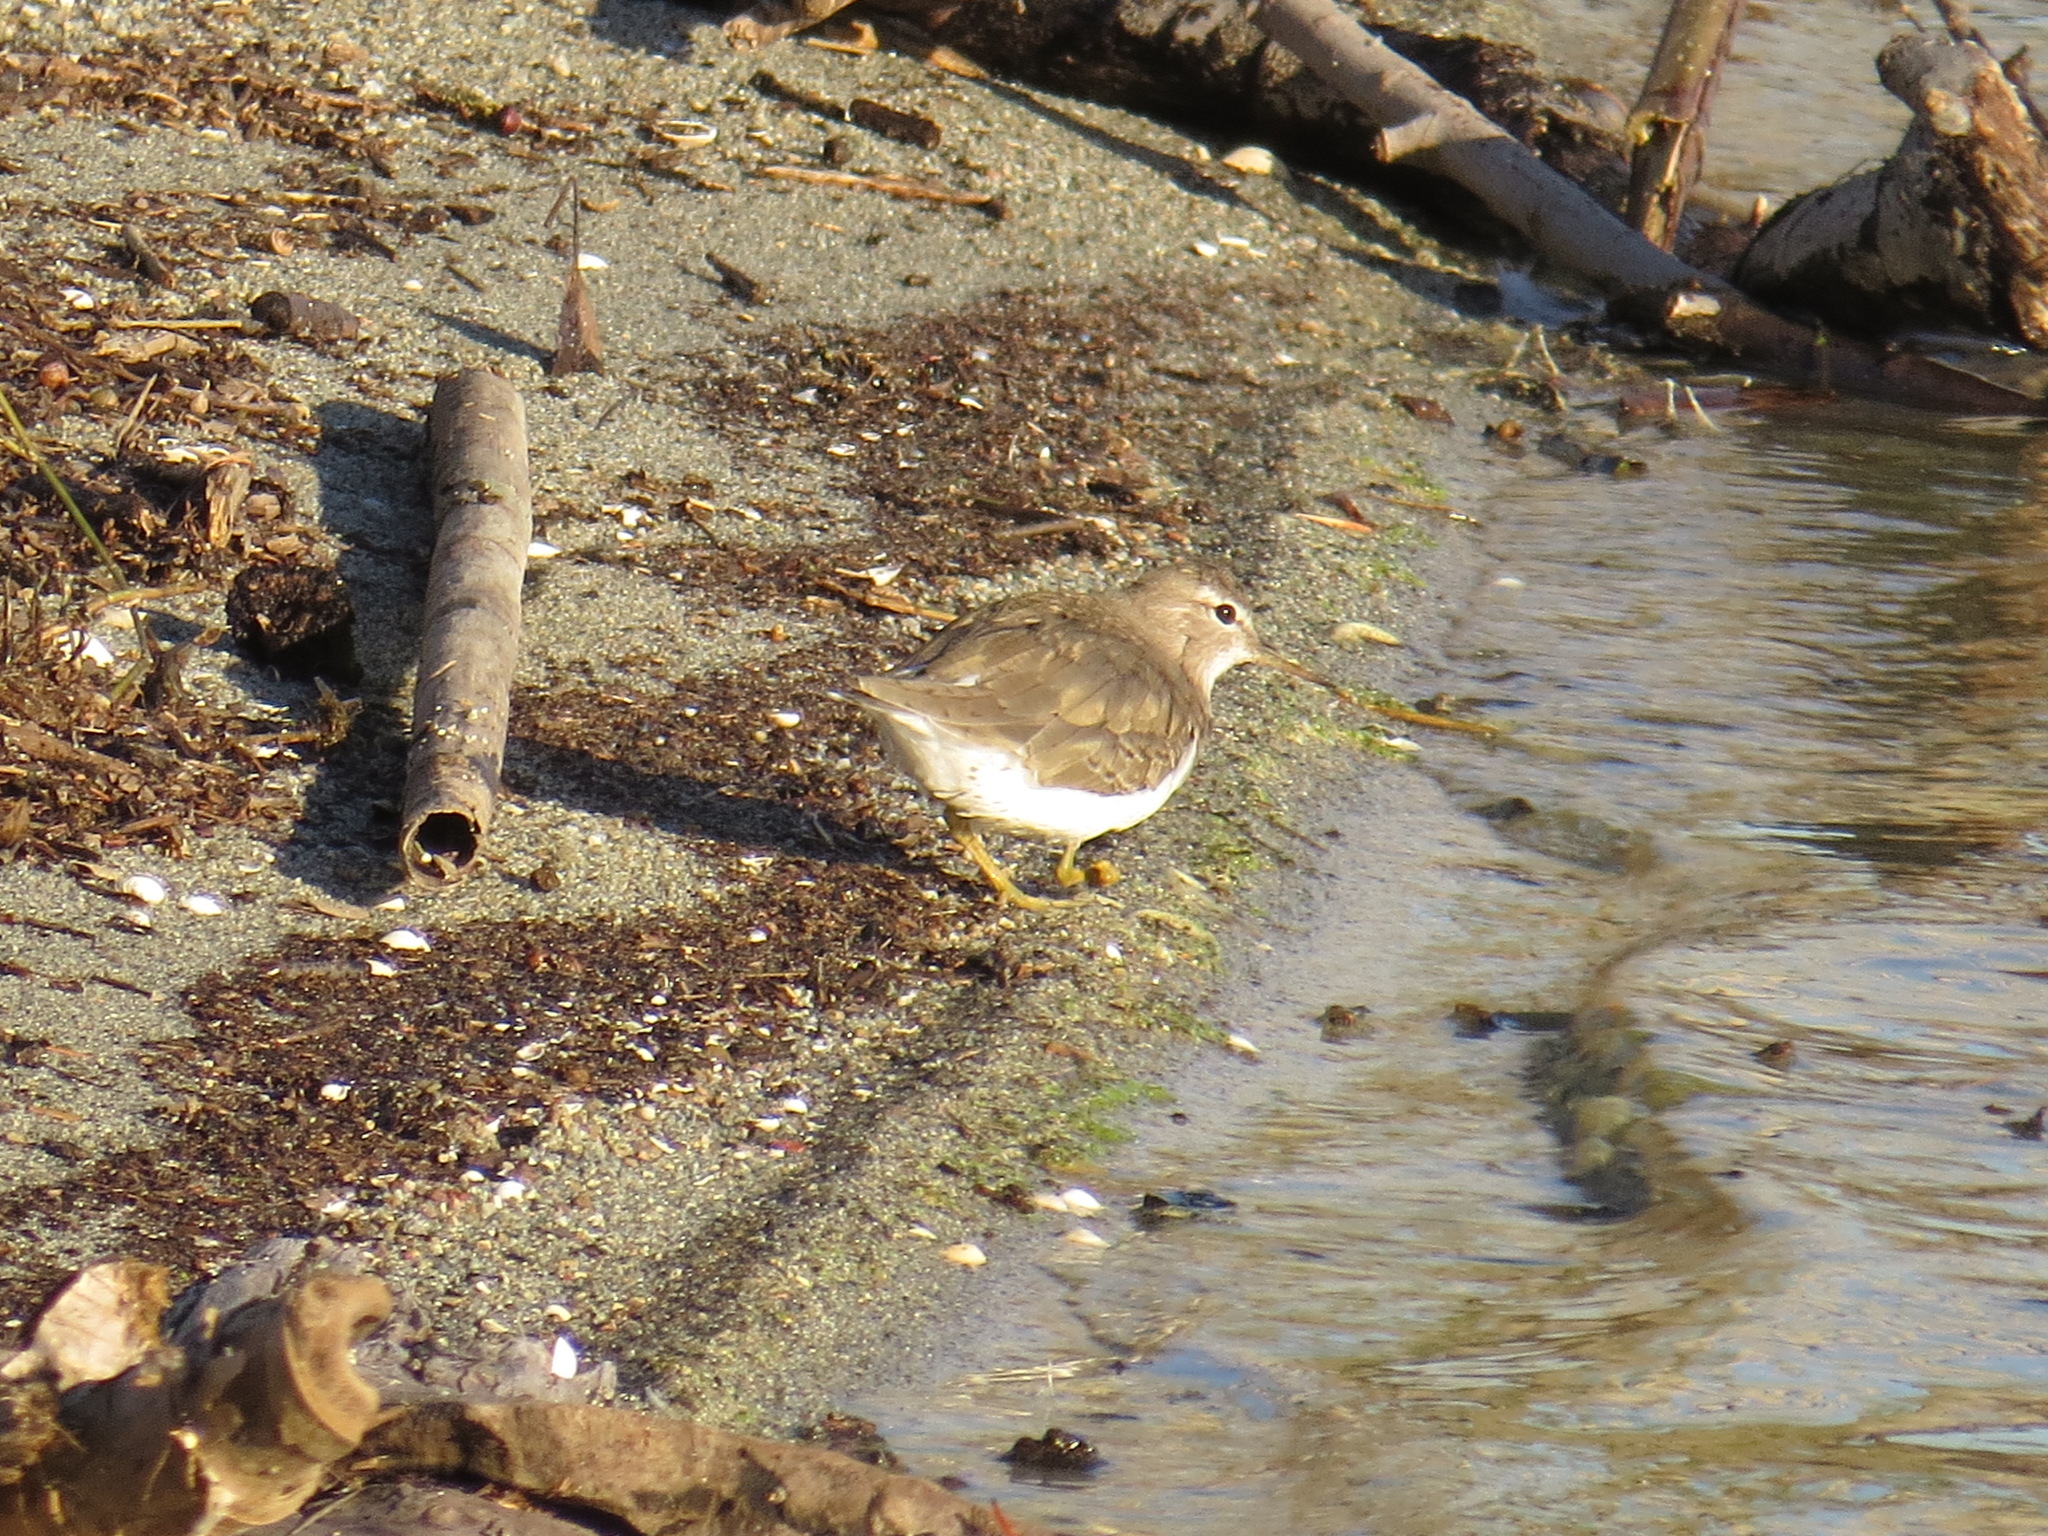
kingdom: Animalia
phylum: Chordata
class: Aves
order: Charadriiformes
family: Scolopacidae
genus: Actitis
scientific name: Actitis macularius
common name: Spotted sandpiper
